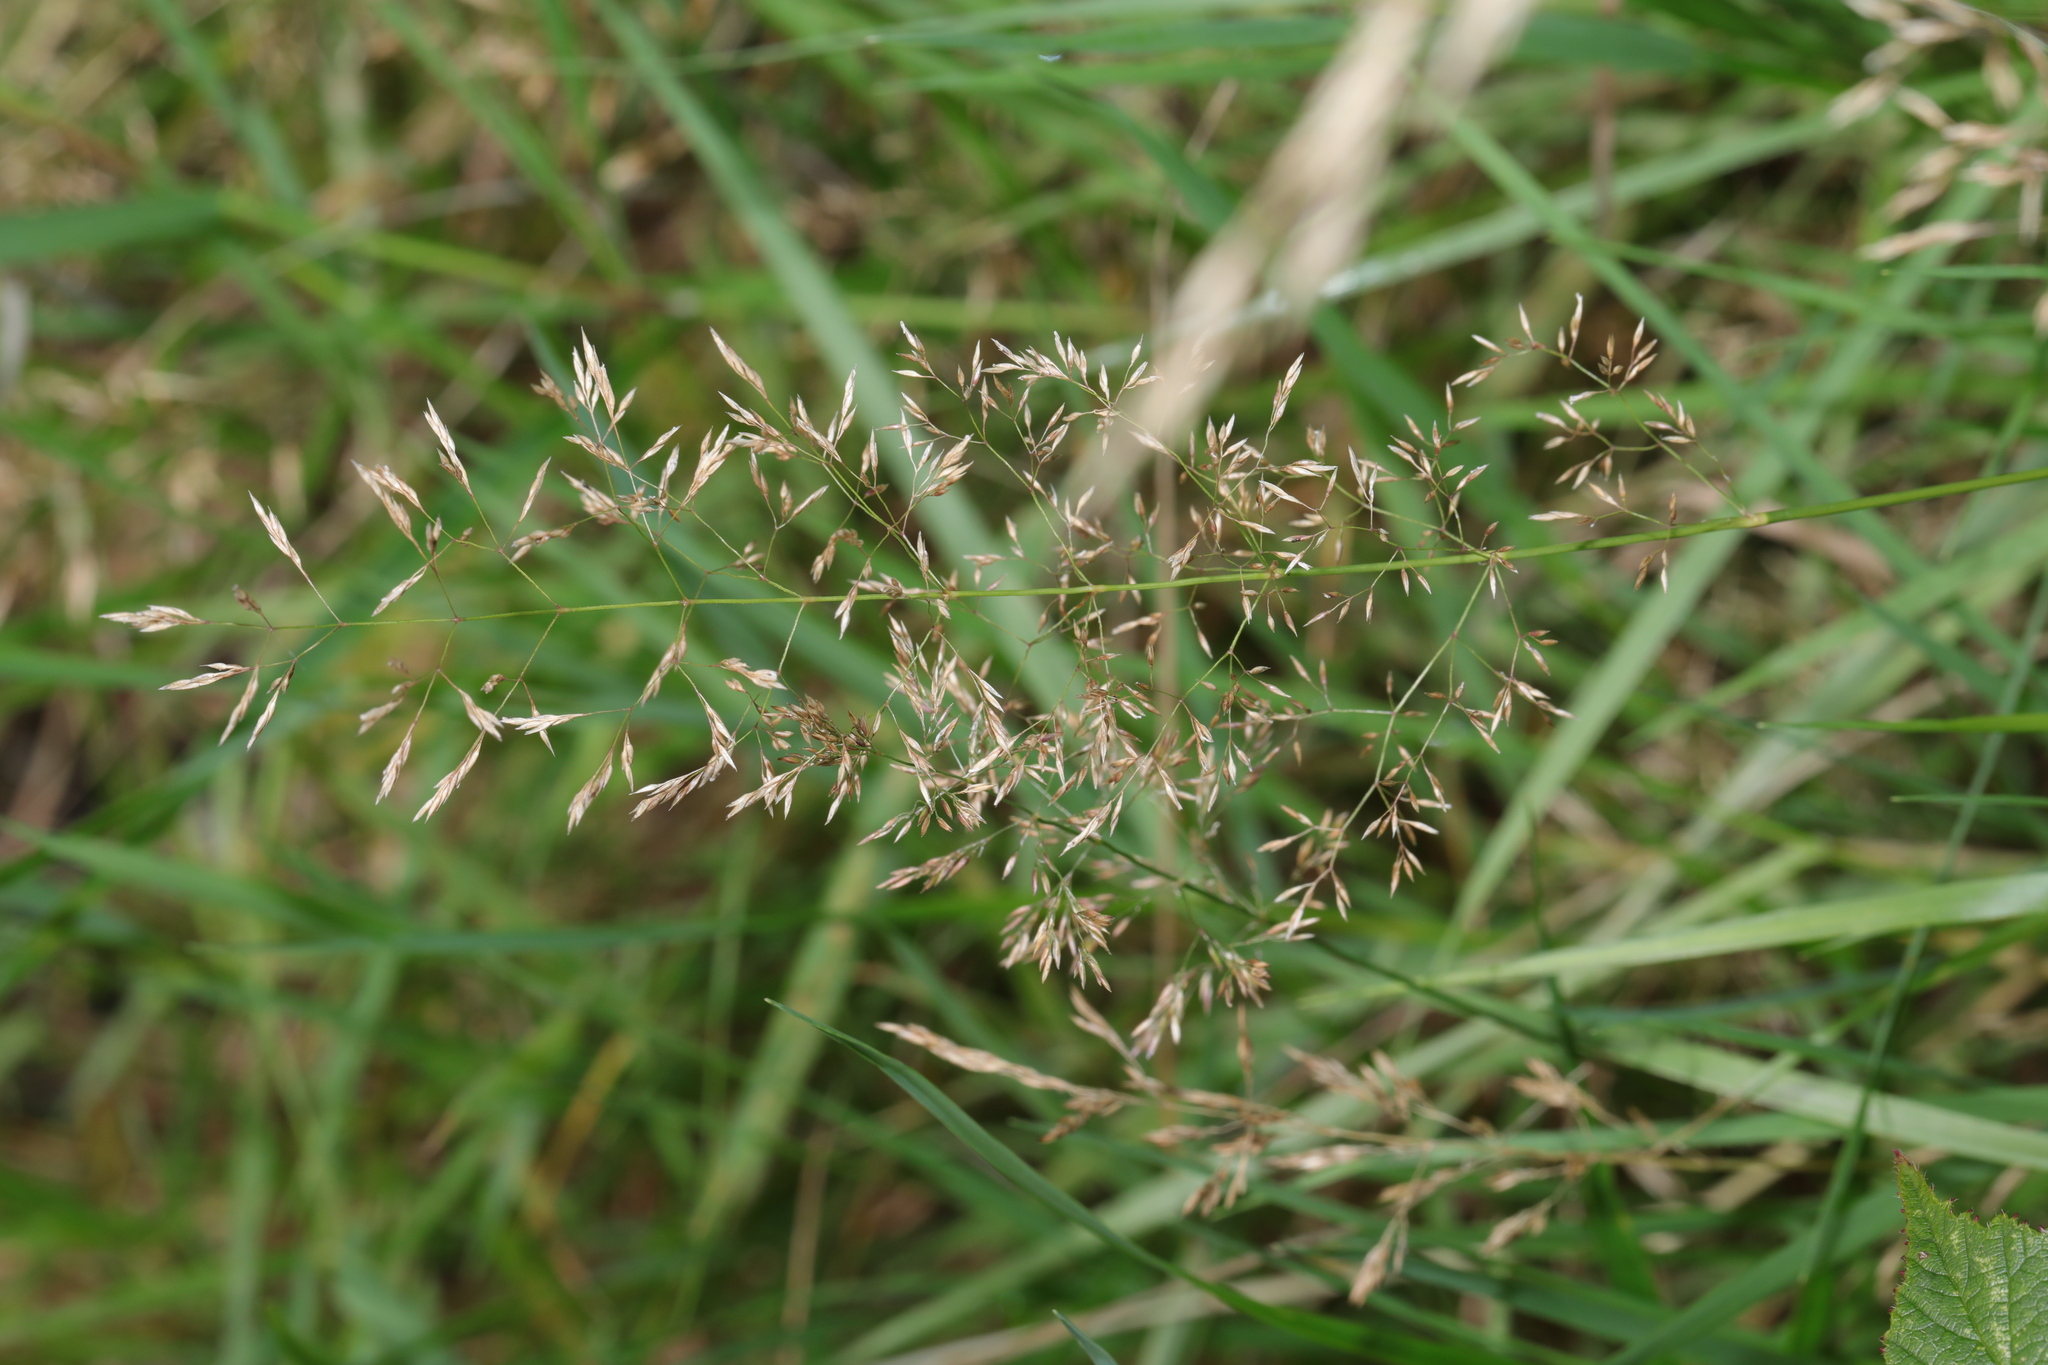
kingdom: Plantae
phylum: Tracheophyta
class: Liliopsida
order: Poales
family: Poaceae
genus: Agrostis
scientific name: Agrostis capillaris
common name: Colonial bentgrass
